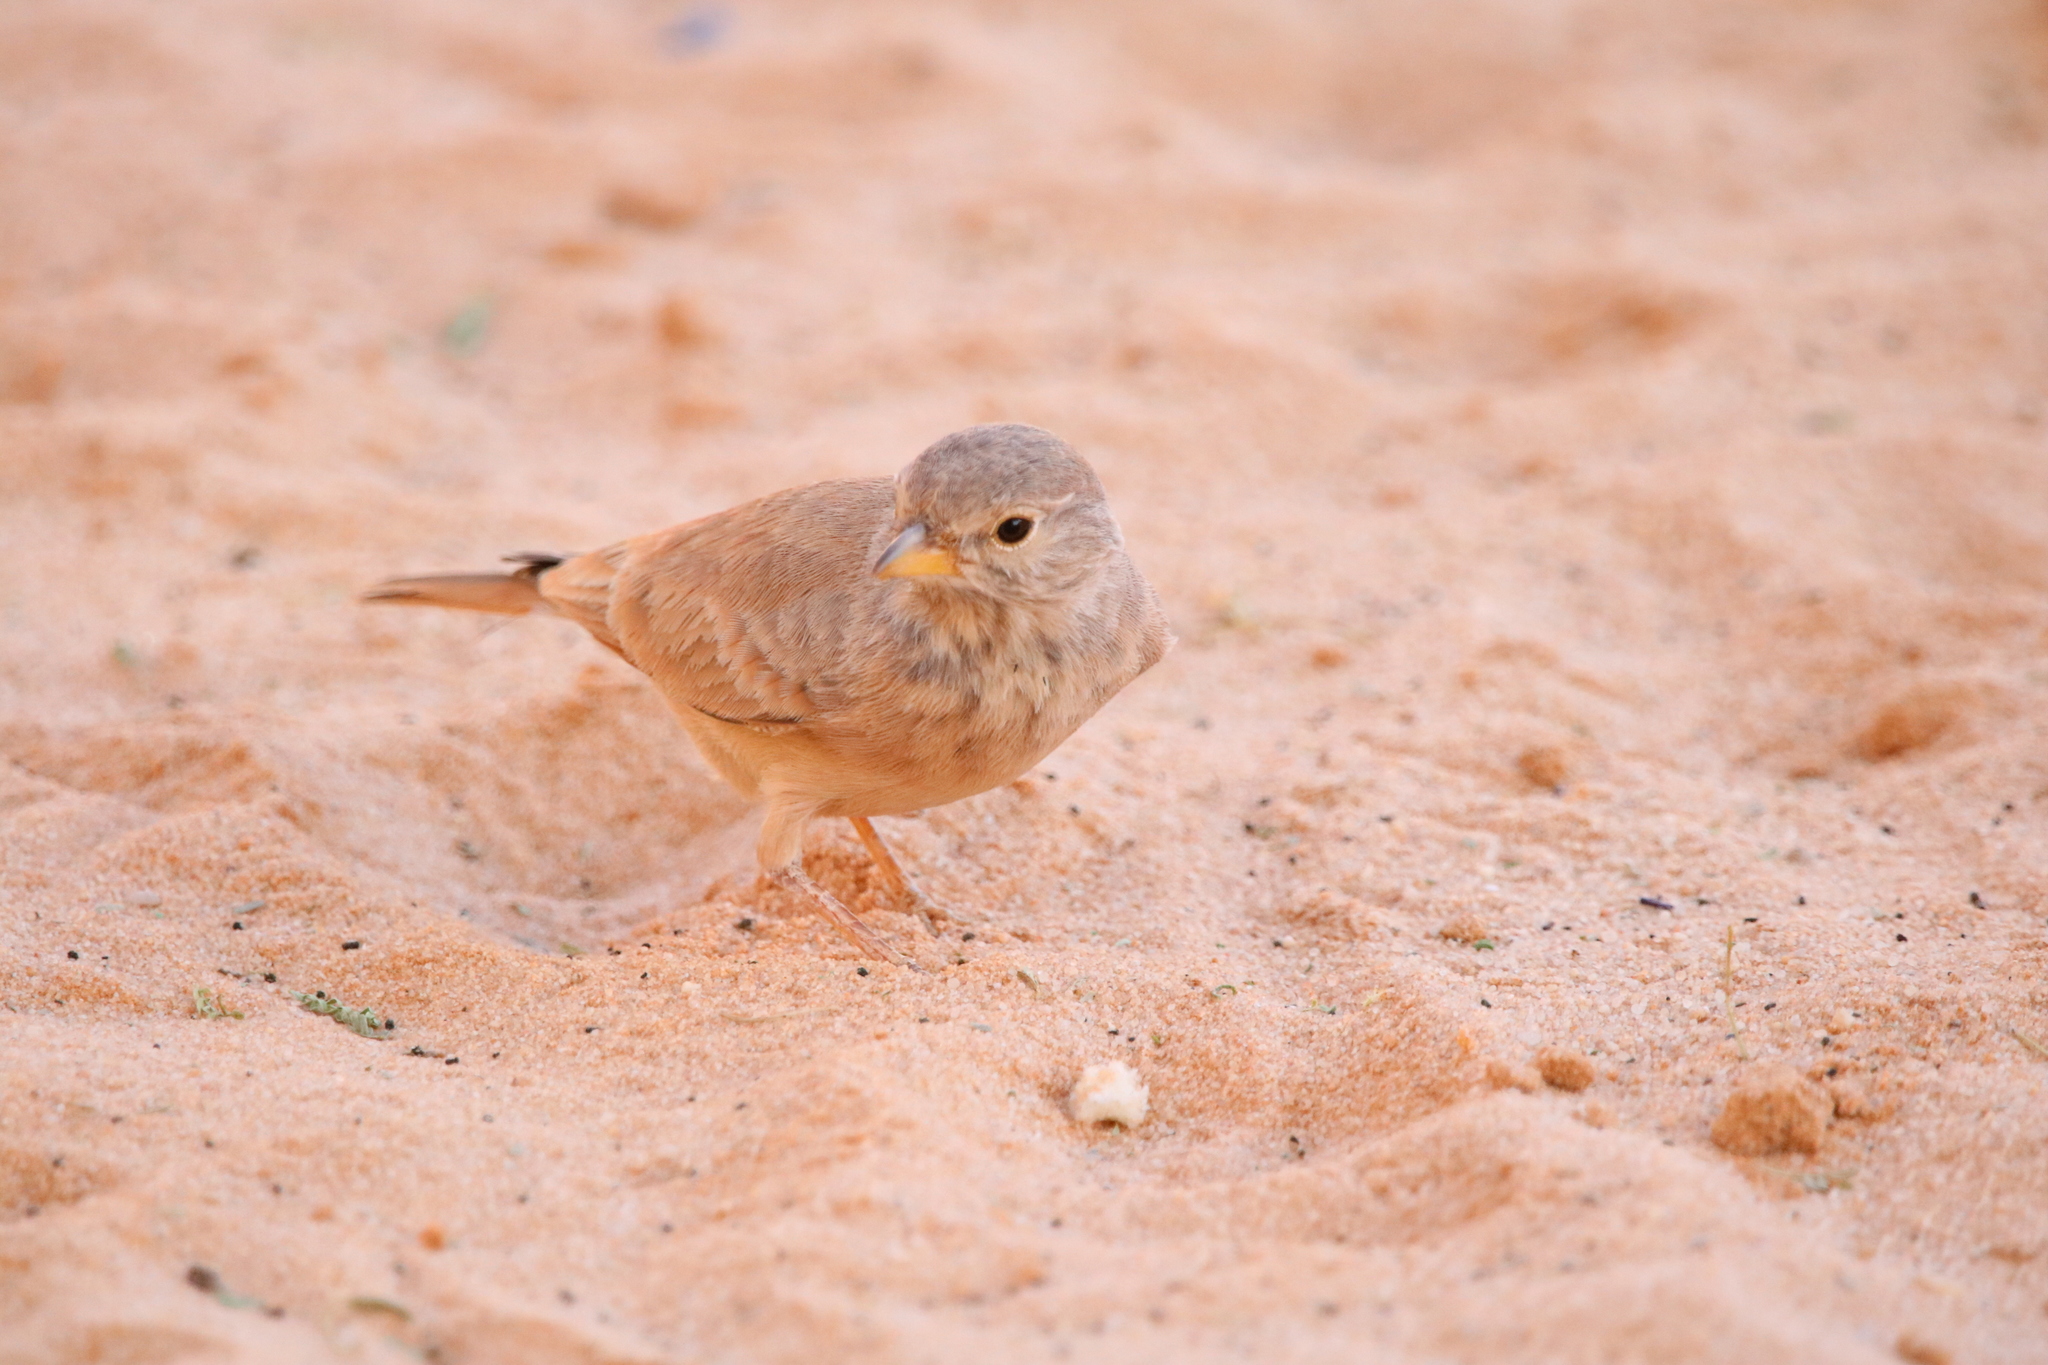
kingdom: Animalia
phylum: Chordata
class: Aves
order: Passeriformes
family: Alaudidae
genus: Ammomanes
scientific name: Ammomanes deserti
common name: Desert lark
